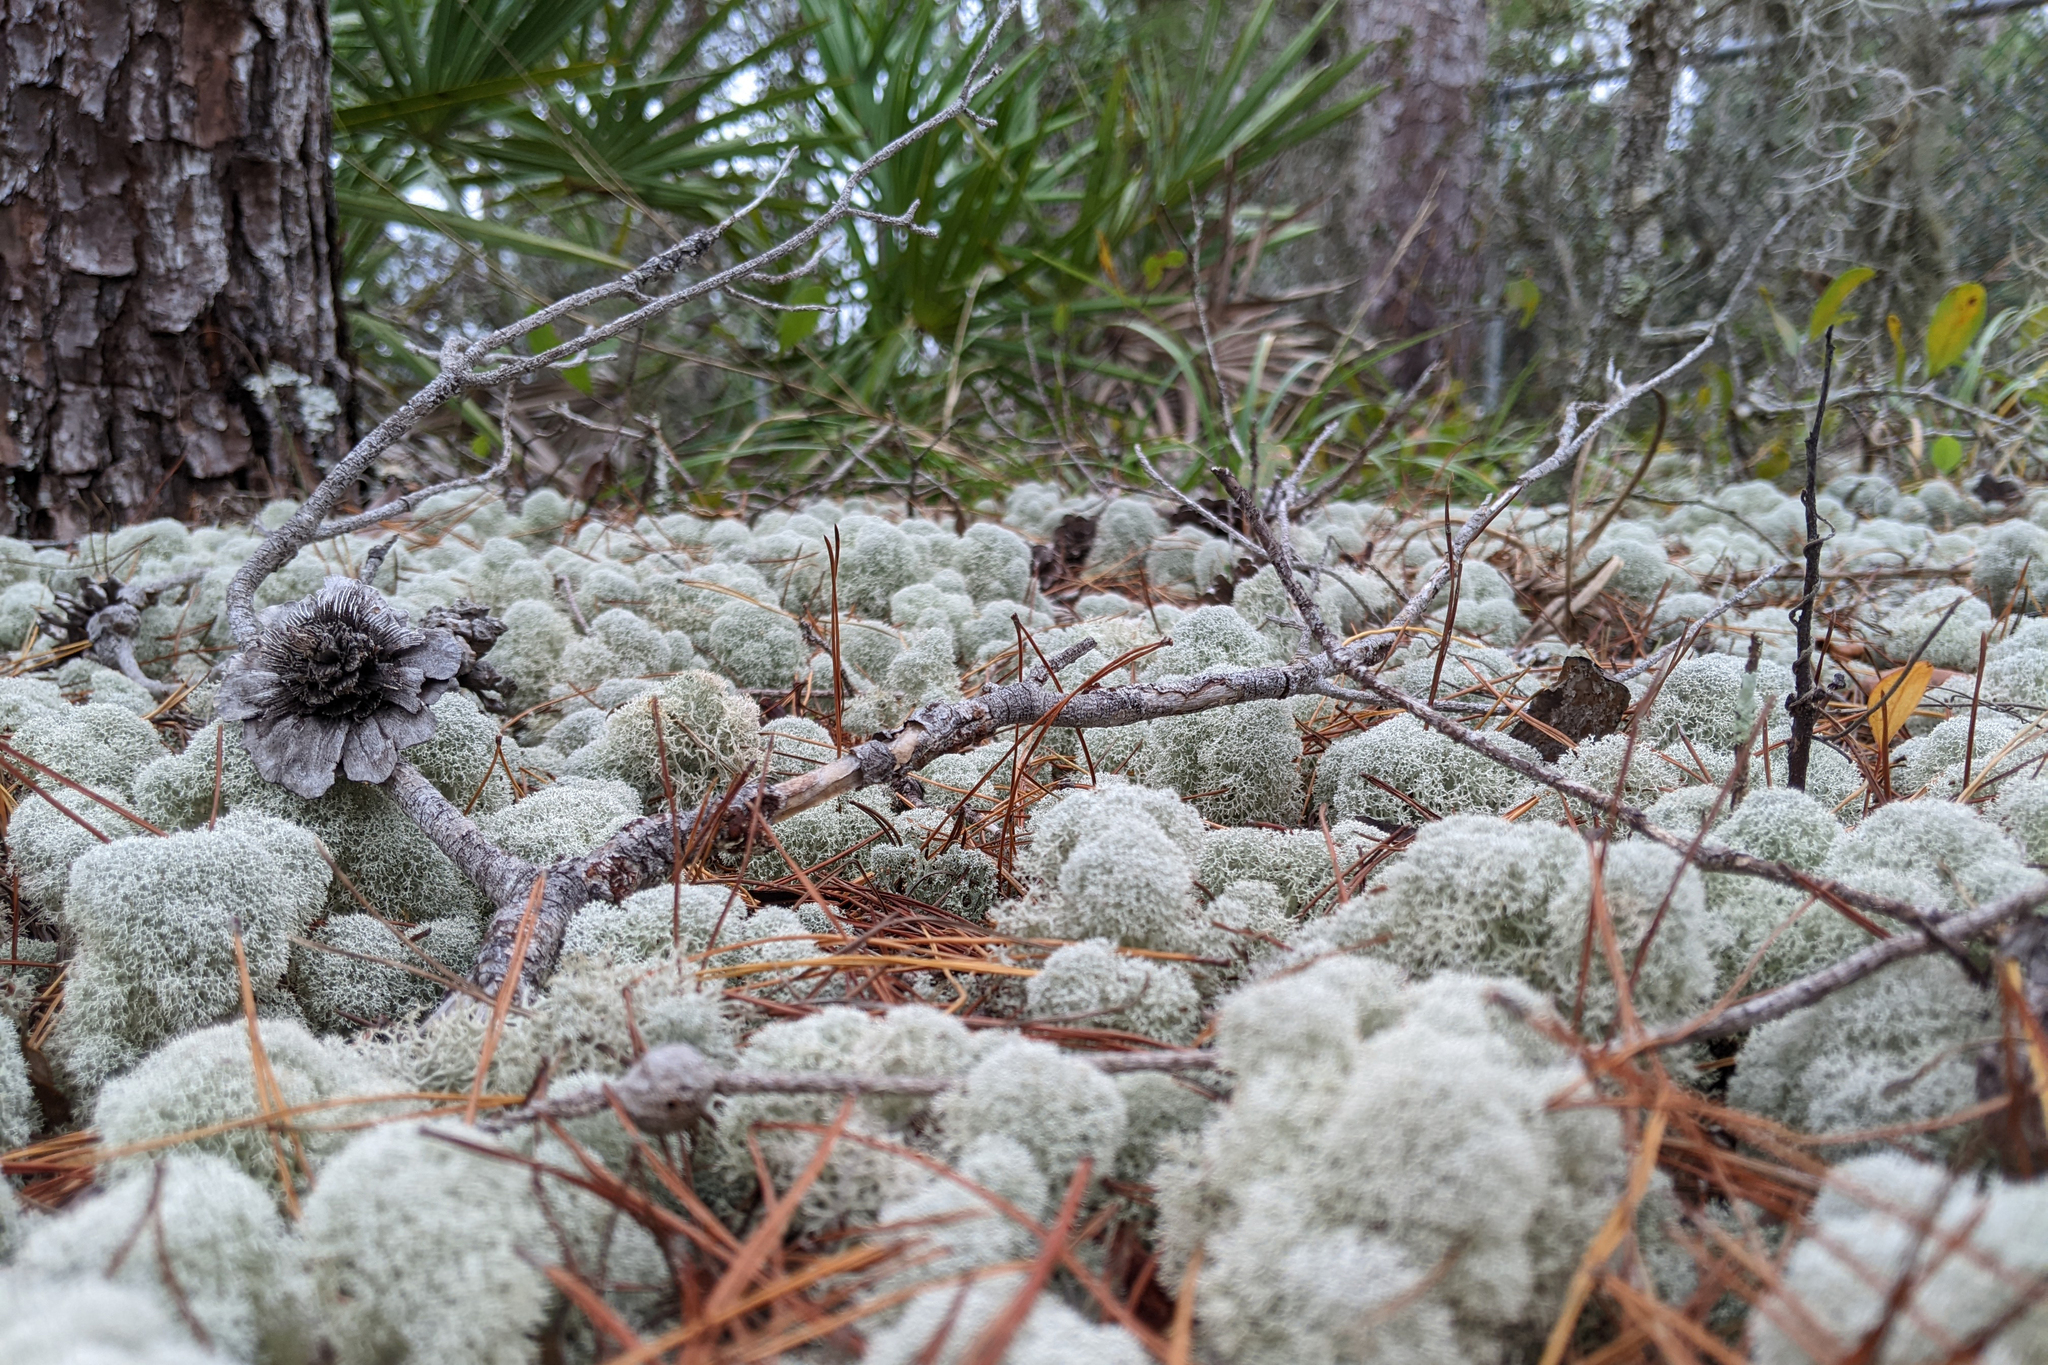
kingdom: Fungi
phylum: Ascomycota
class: Lecanoromycetes
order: Lecanorales
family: Cladoniaceae
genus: Cladonia
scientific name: Cladonia evansii
